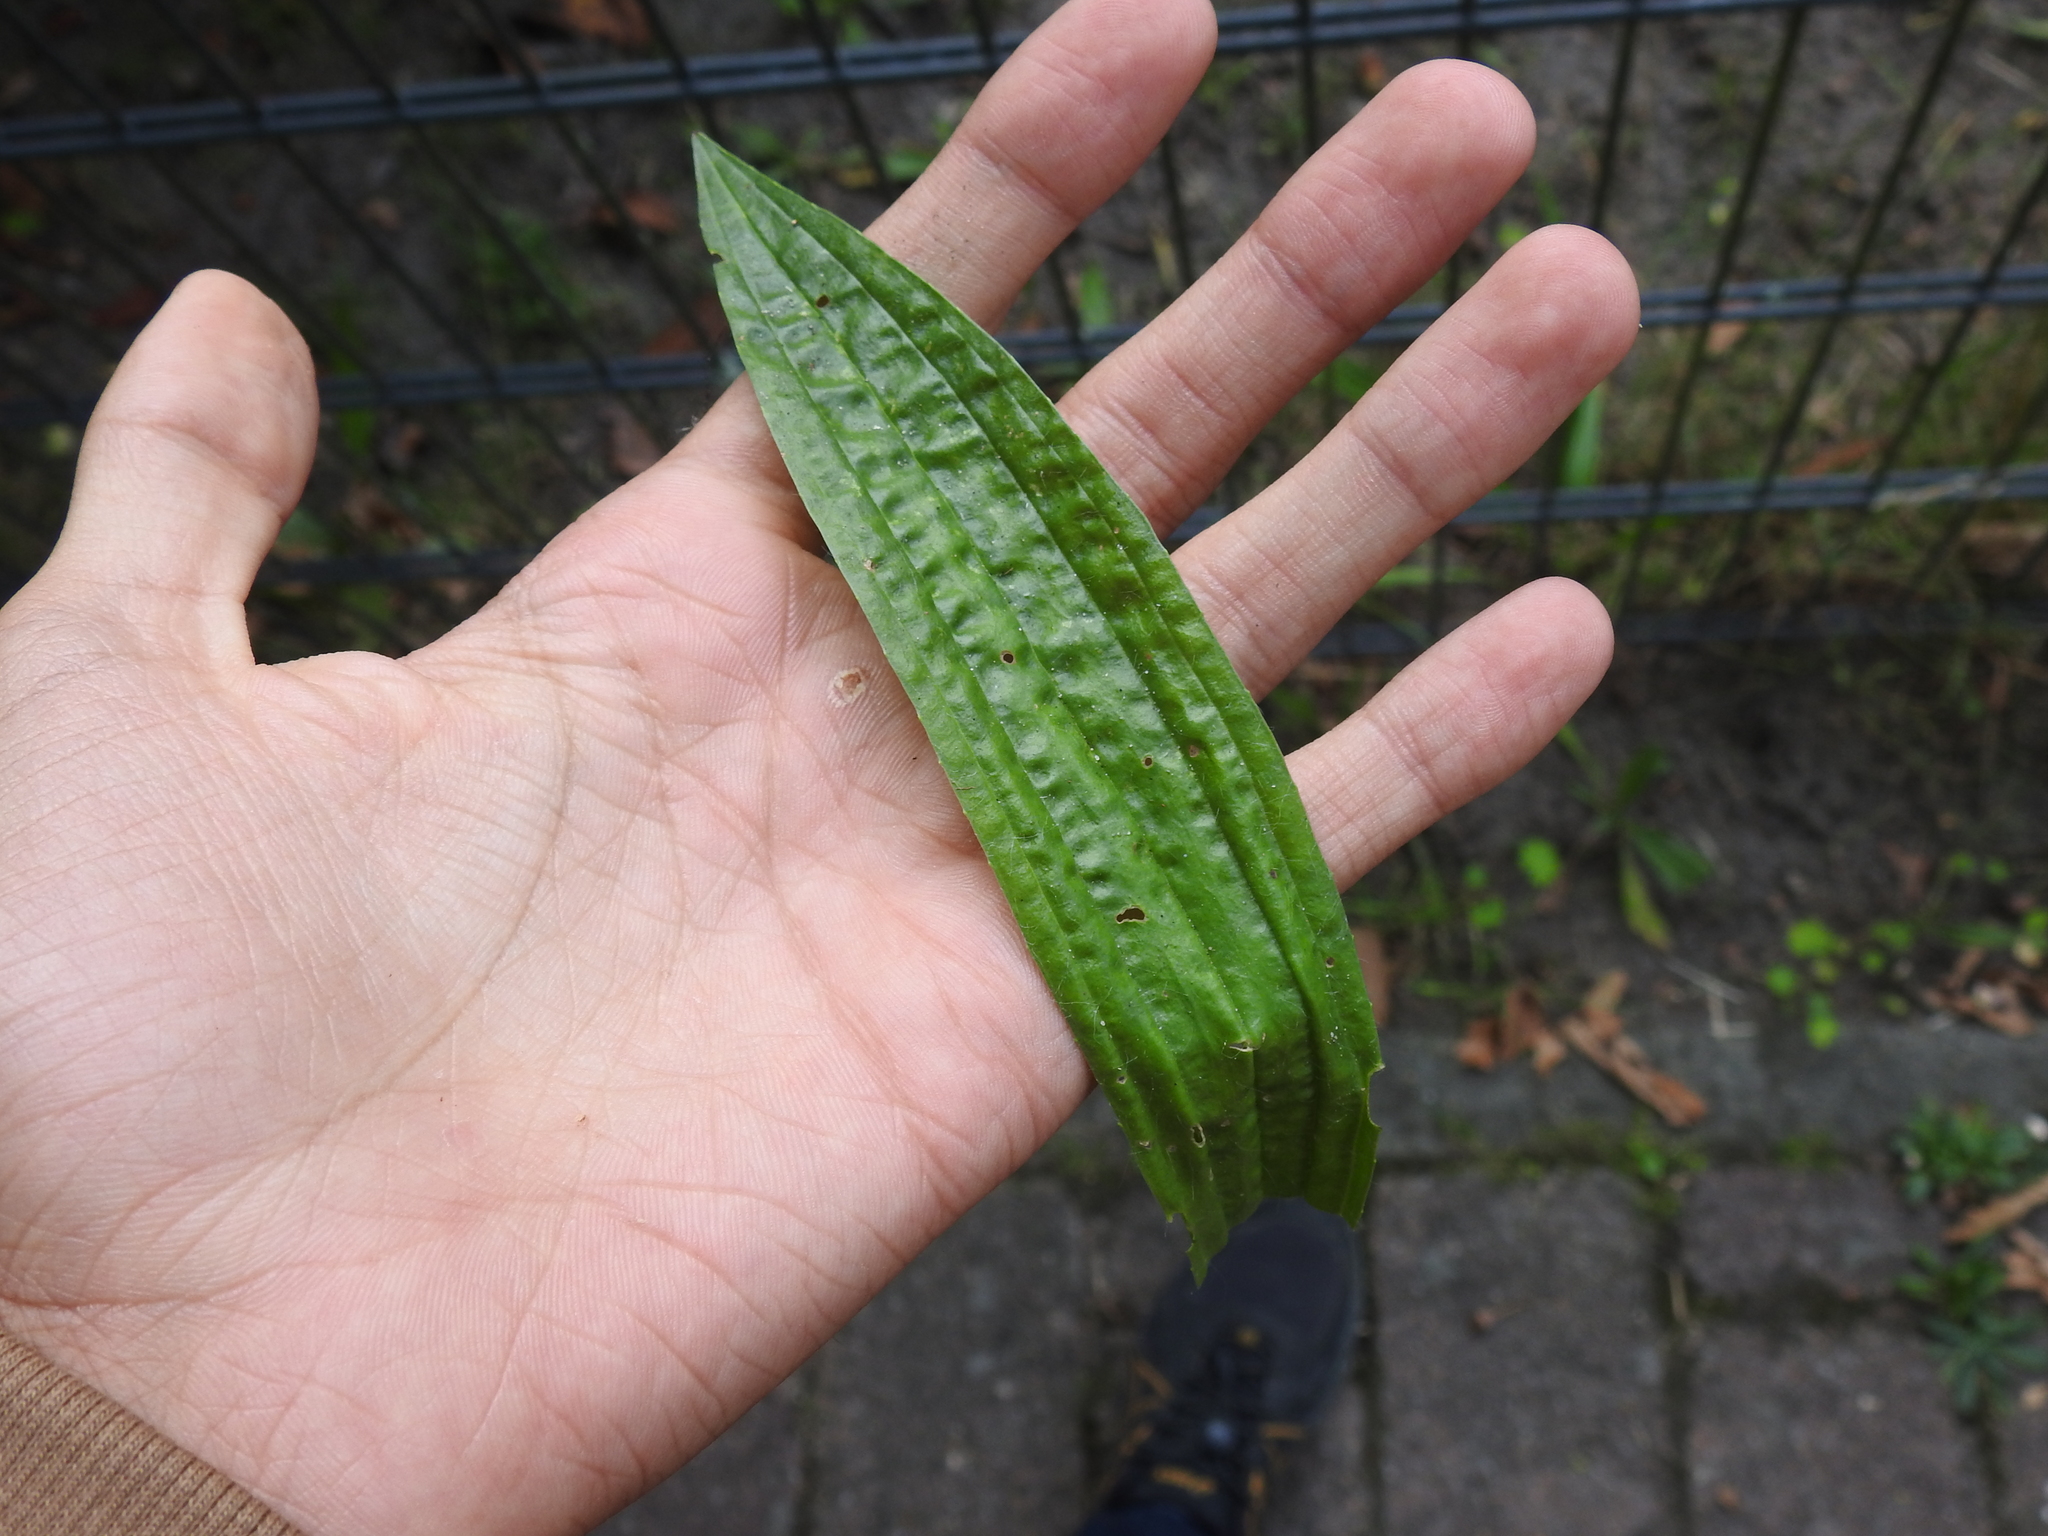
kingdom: Plantae
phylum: Tracheophyta
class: Magnoliopsida
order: Lamiales
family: Plantaginaceae
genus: Plantago
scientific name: Plantago lanceolata
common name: Ribwort plantain
